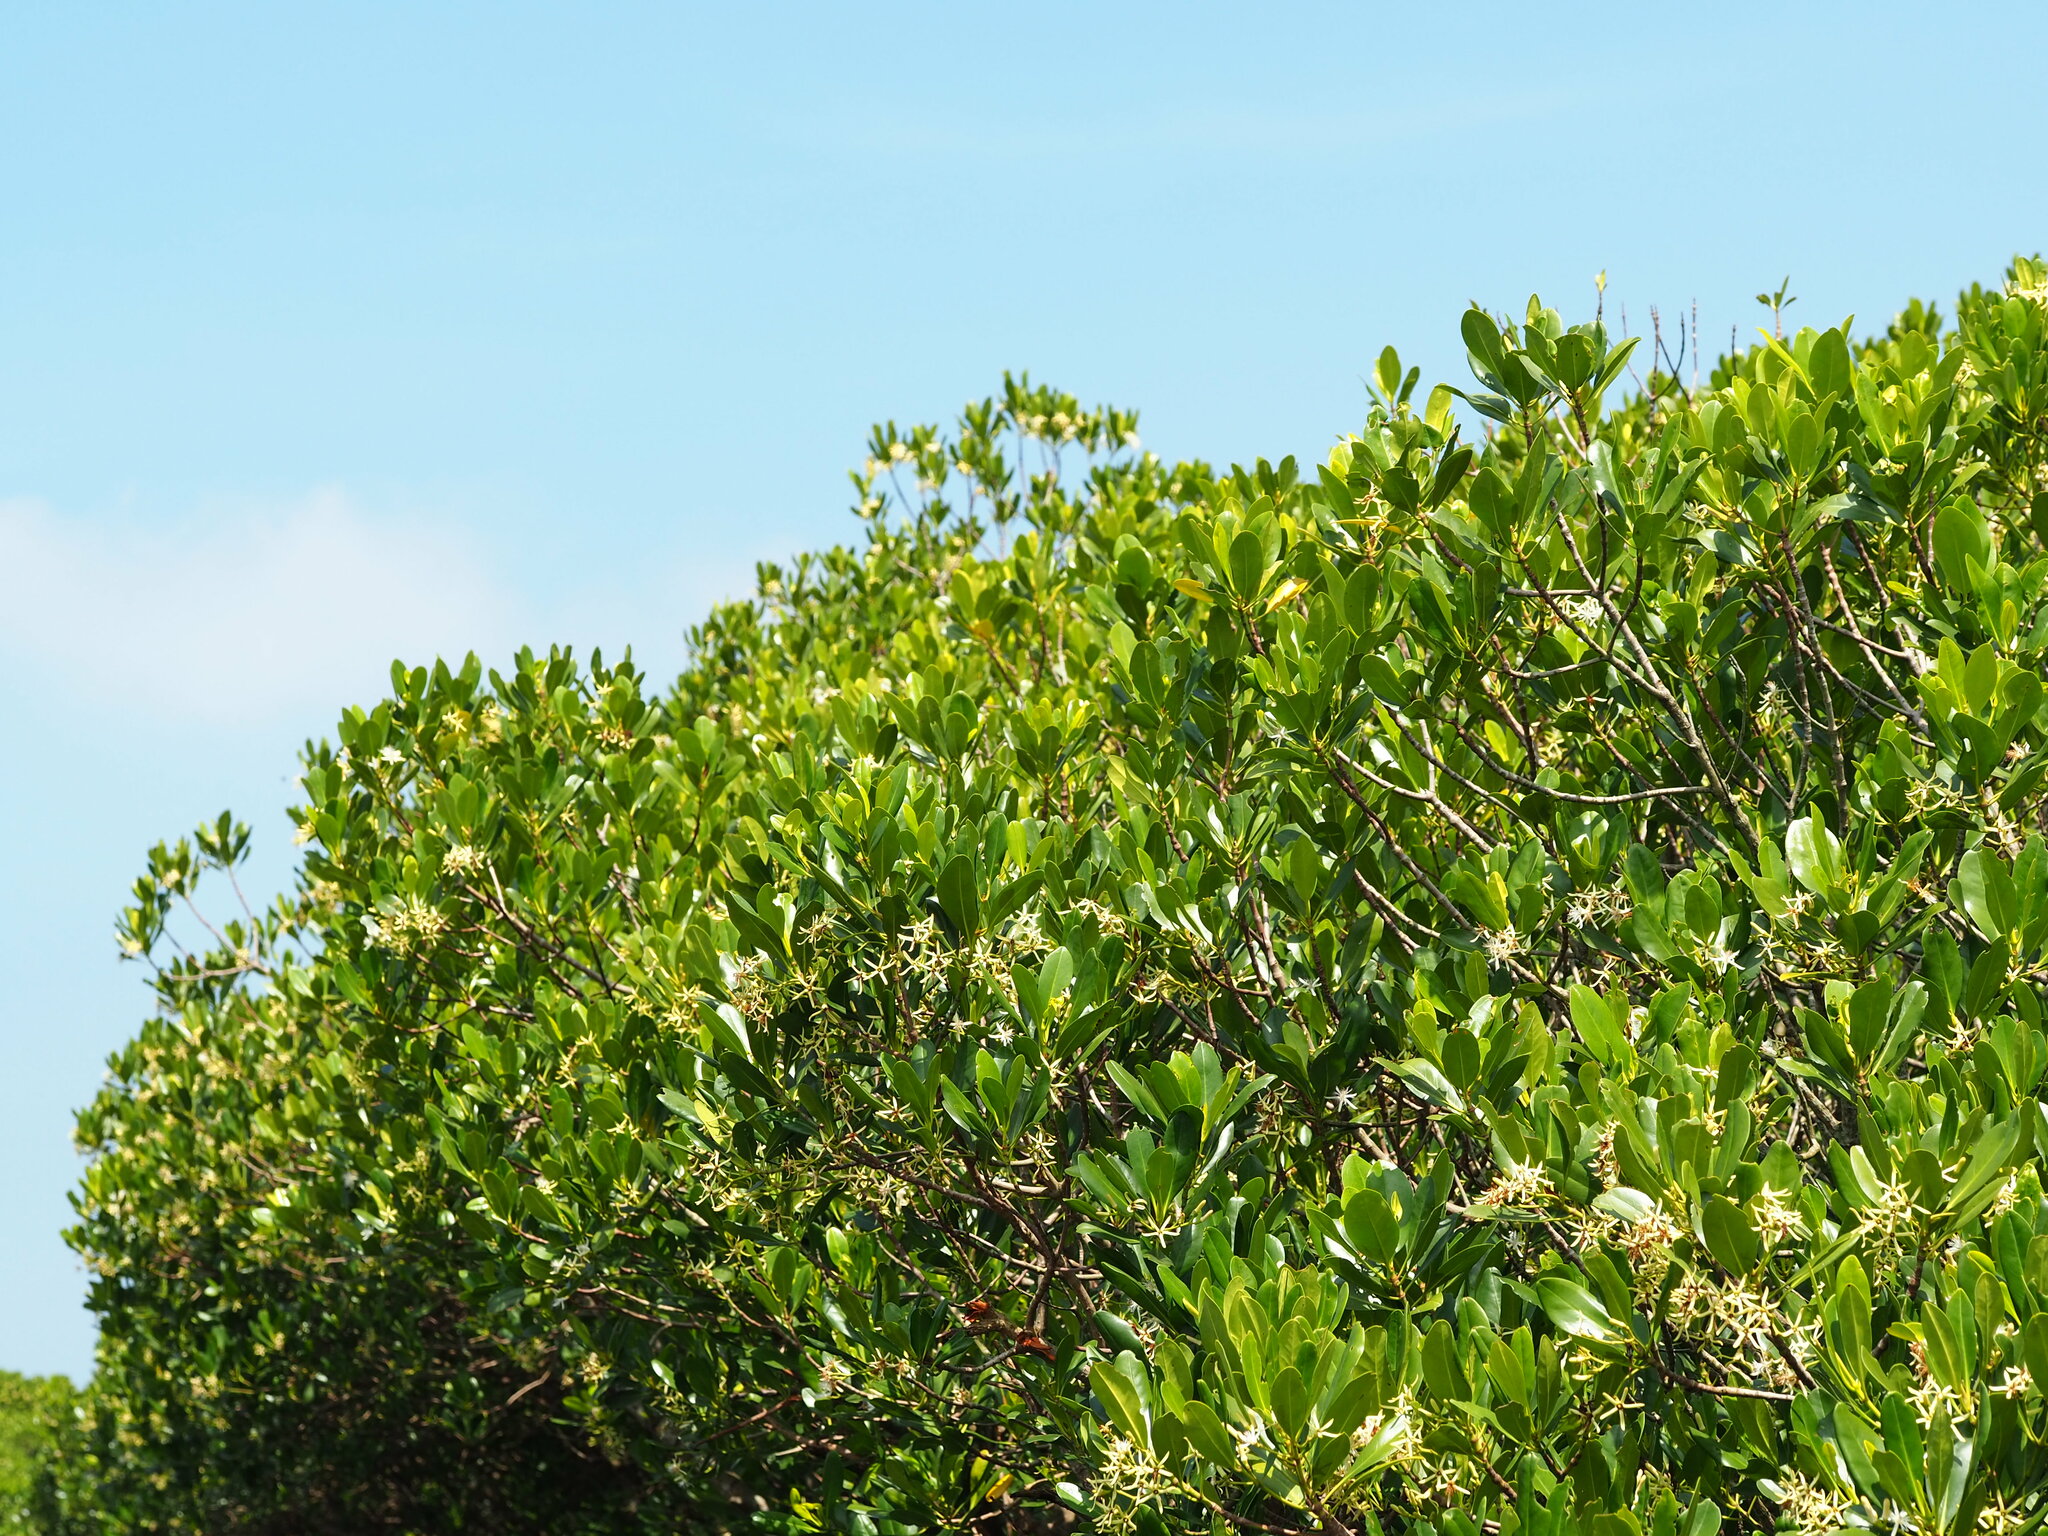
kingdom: Plantae
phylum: Tracheophyta
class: Magnoliopsida
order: Malpighiales
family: Rhizophoraceae
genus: Kandelia
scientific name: Kandelia obovata
